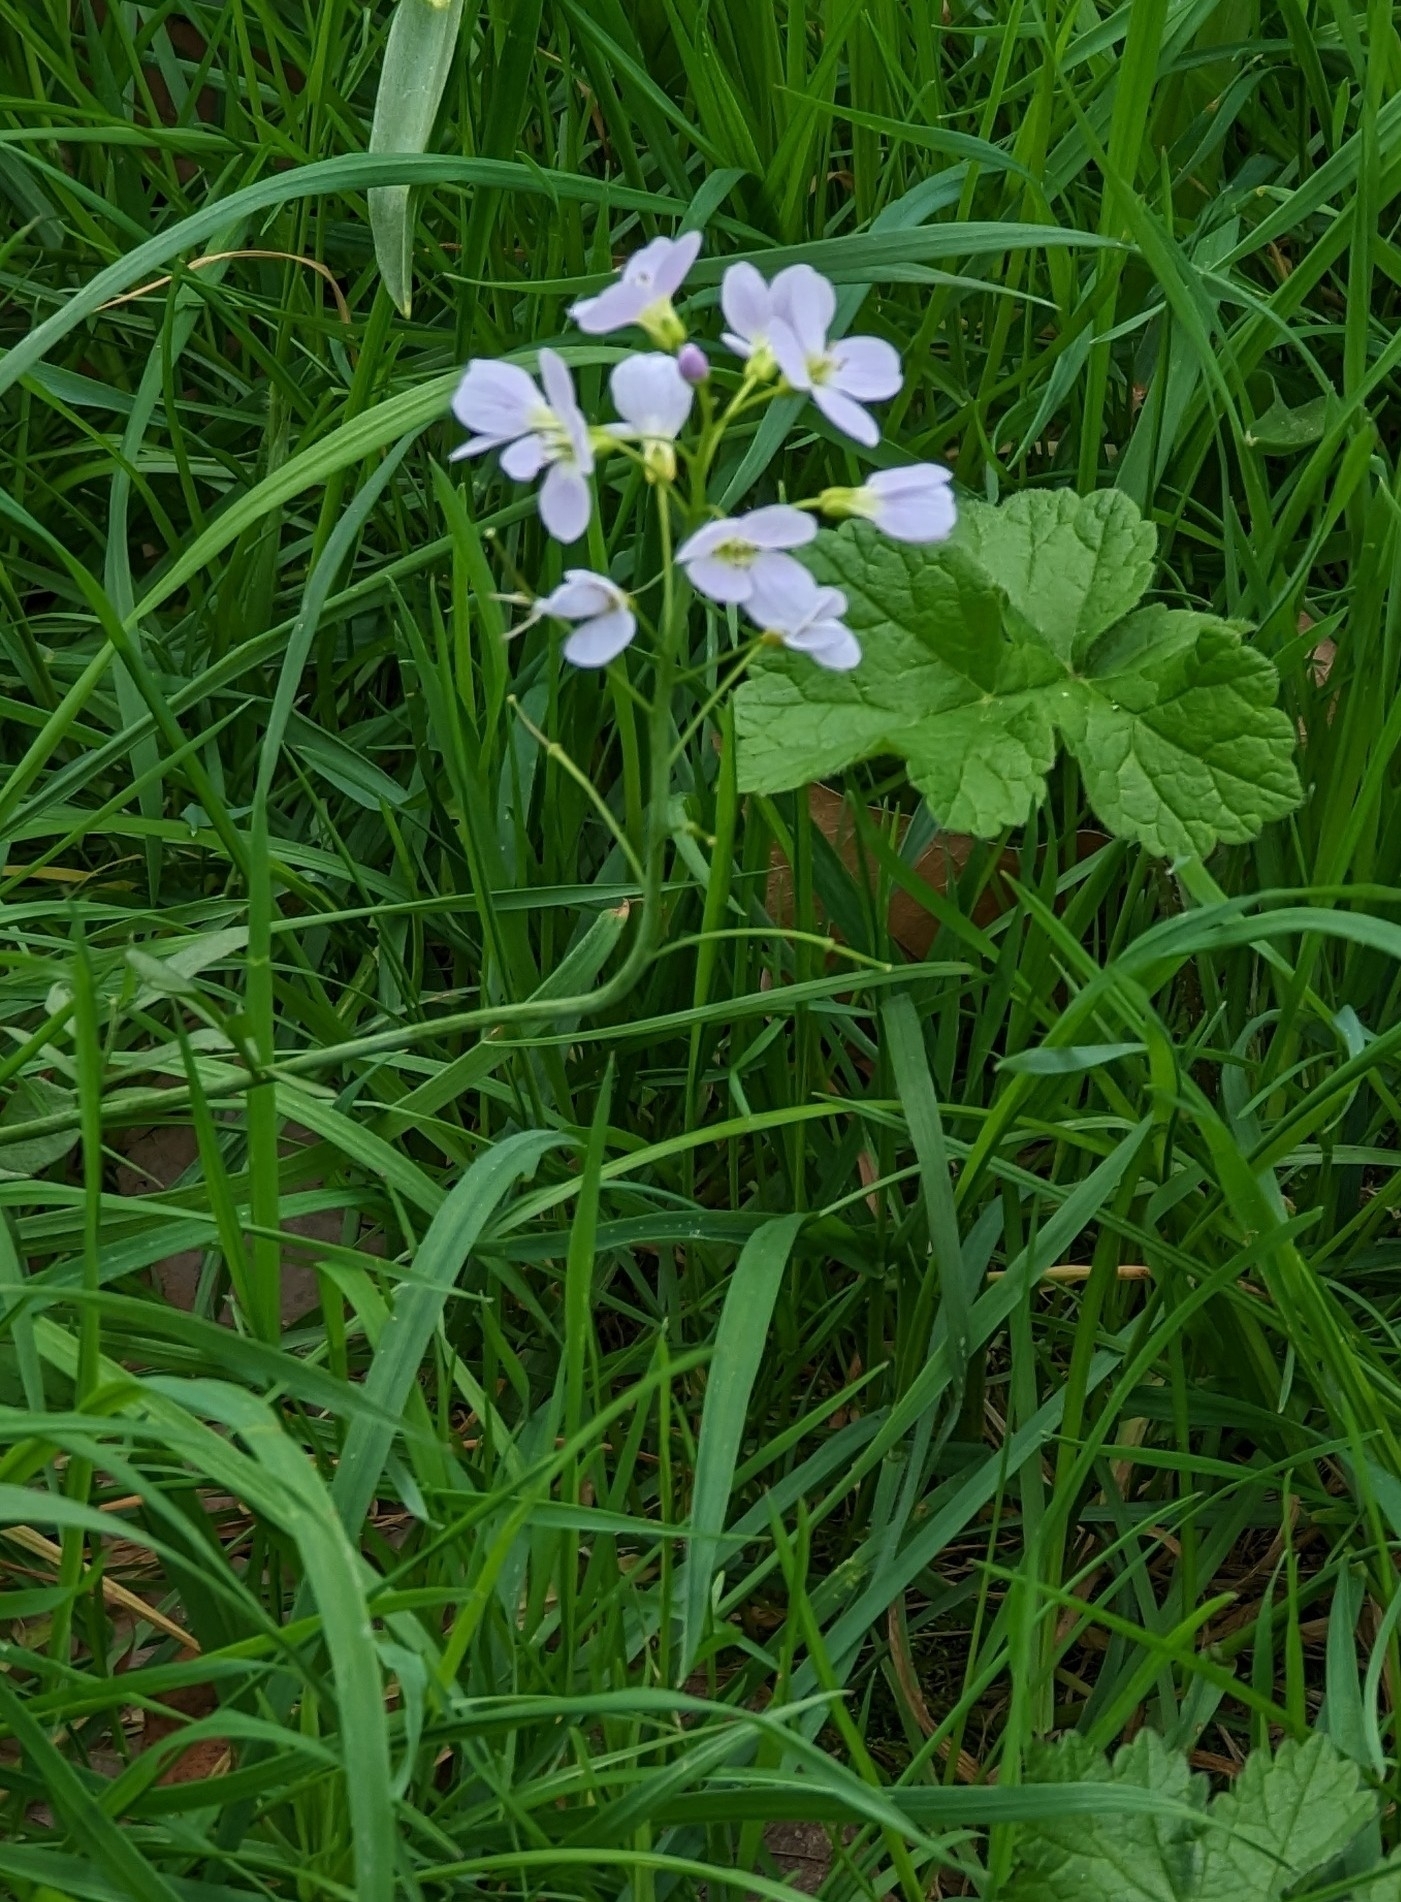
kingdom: Plantae
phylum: Tracheophyta
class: Magnoliopsida
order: Brassicales
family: Brassicaceae
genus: Cardamine
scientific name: Cardamine pratensis
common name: Cuckoo flower
